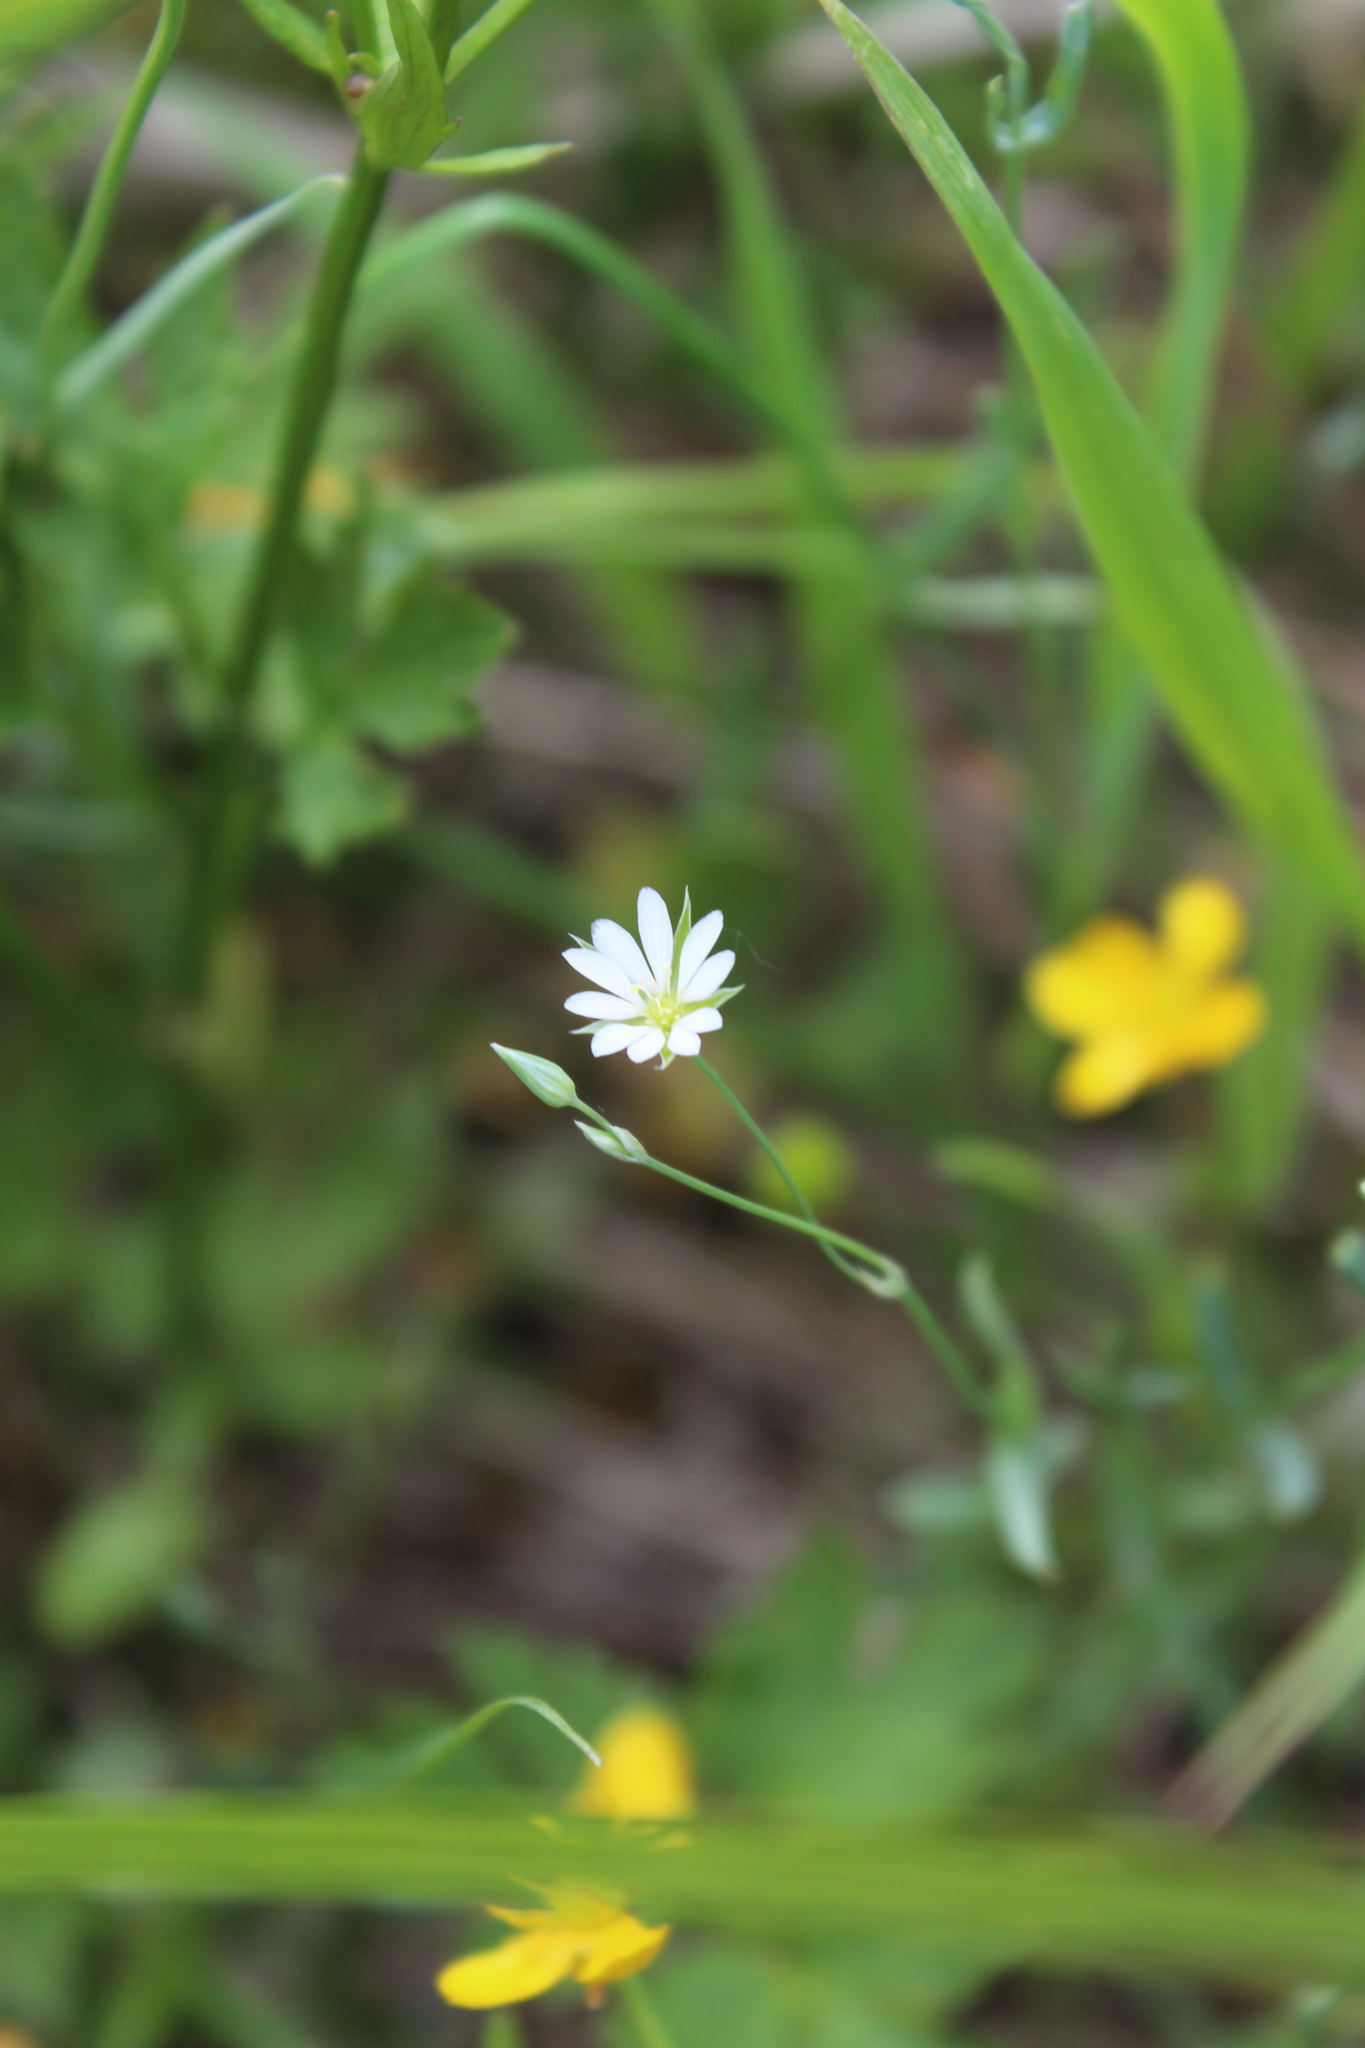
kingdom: Plantae
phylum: Tracheophyta
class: Magnoliopsida
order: Caryophyllales
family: Caryophyllaceae
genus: Stellaria
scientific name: Stellaria palustris
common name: Marsh stitchwort
